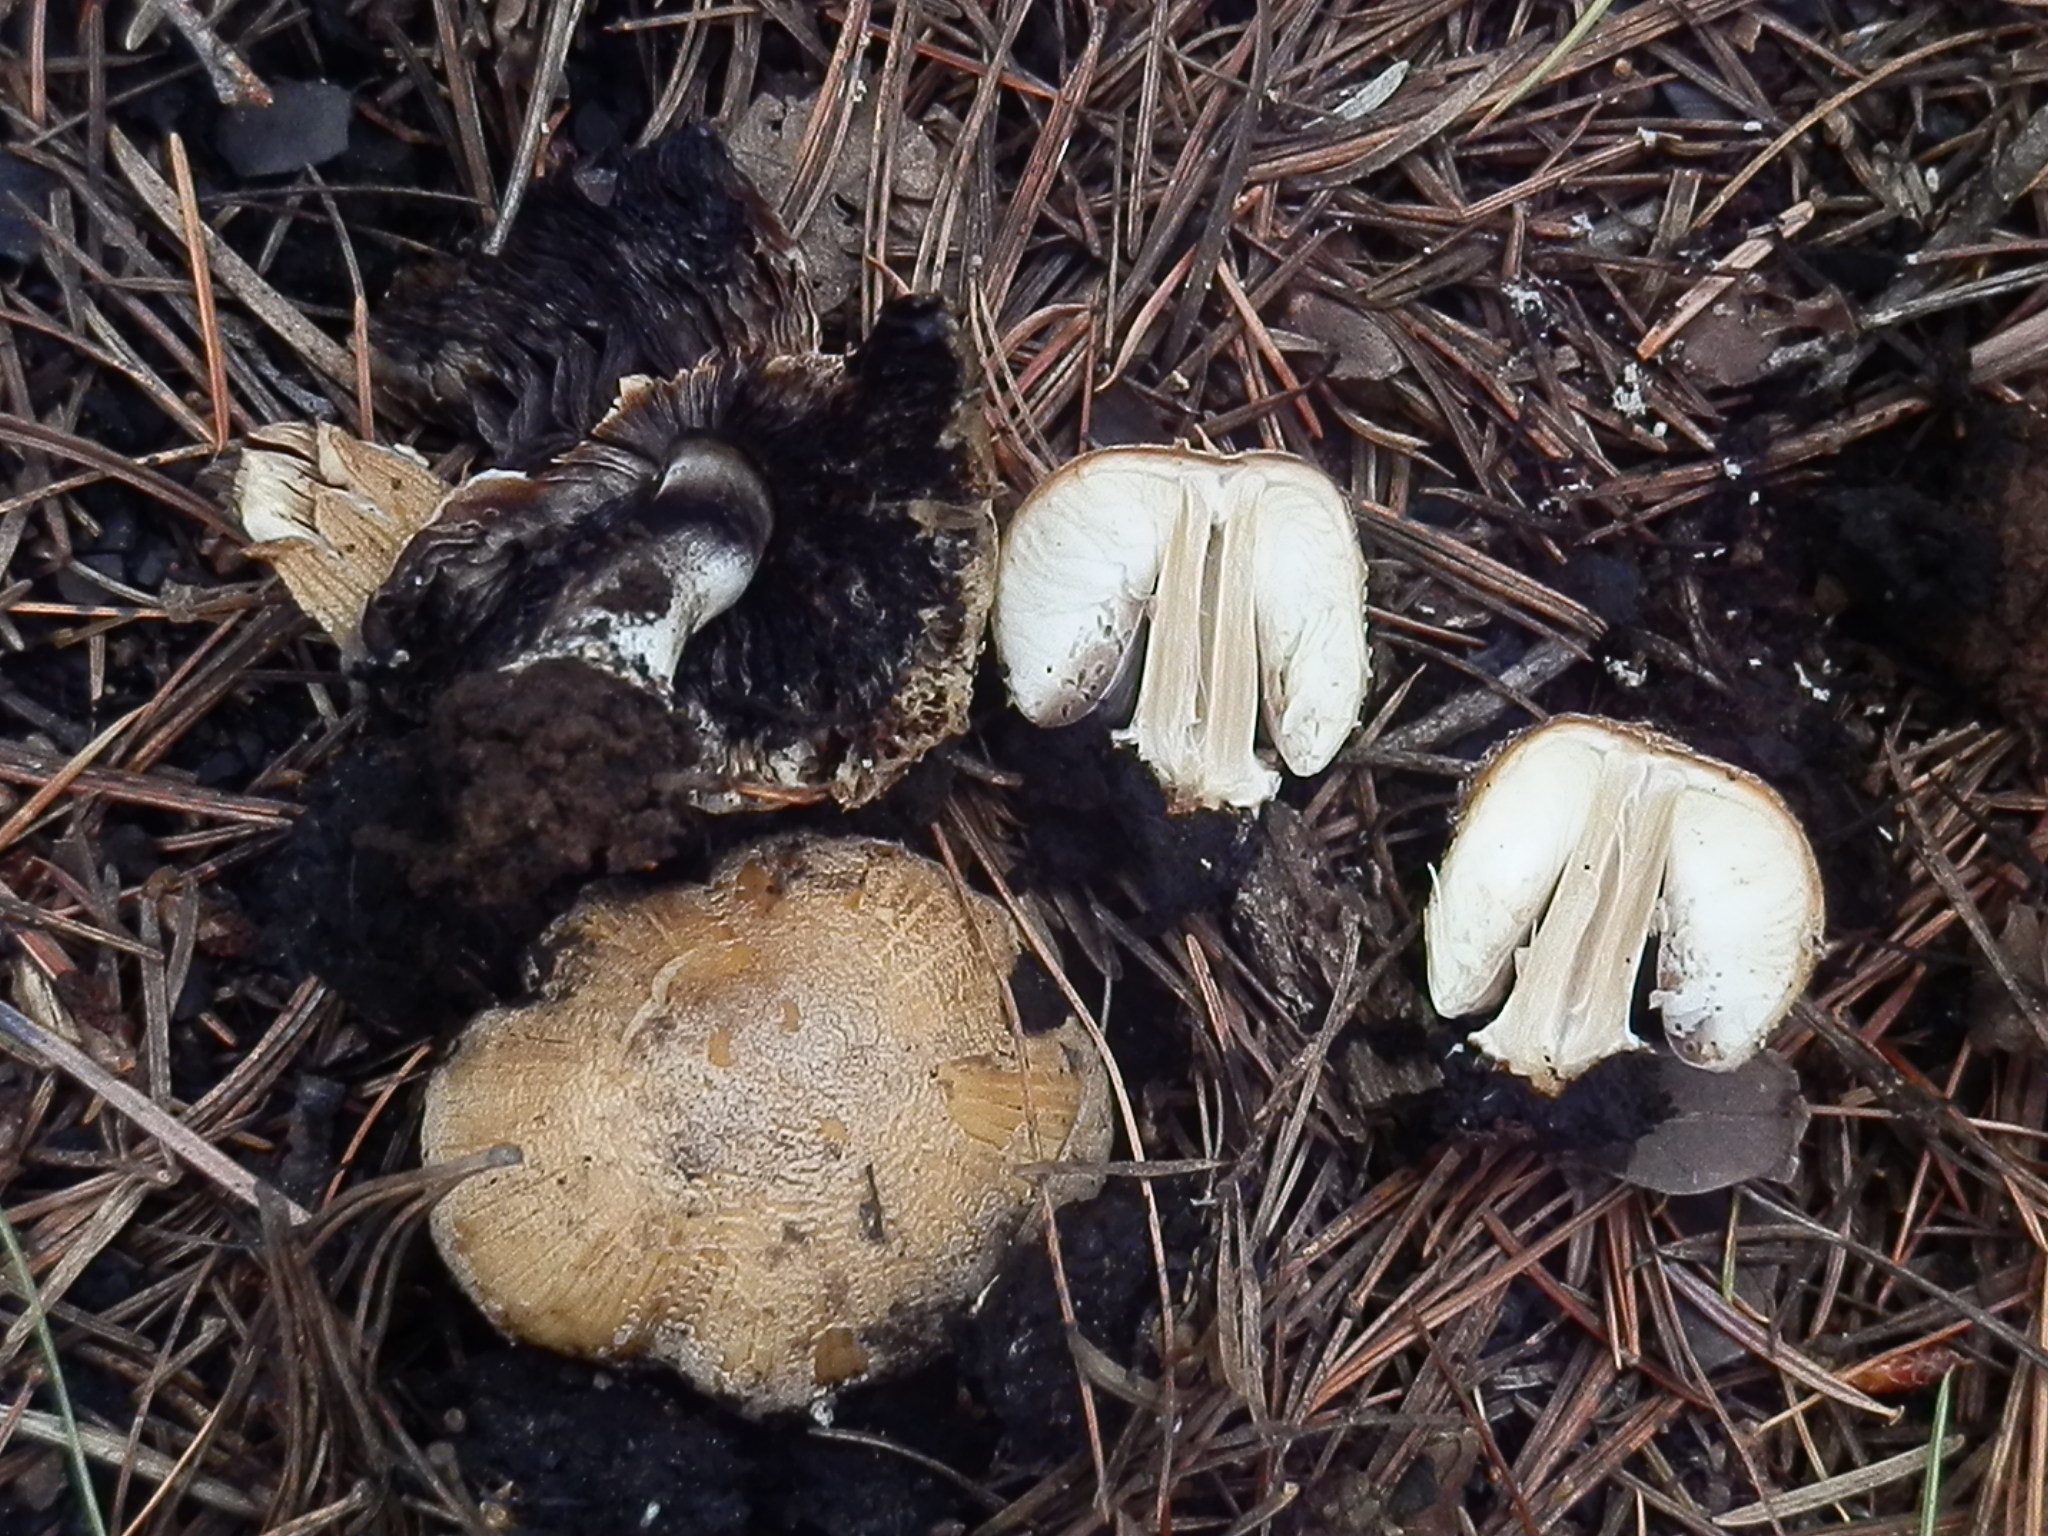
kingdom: Fungi
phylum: Basidiomycota
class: Agaricomycetes
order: Agaricales
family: Psathyrellaceae
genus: Coprinellus
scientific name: Coprinellus bipellis
